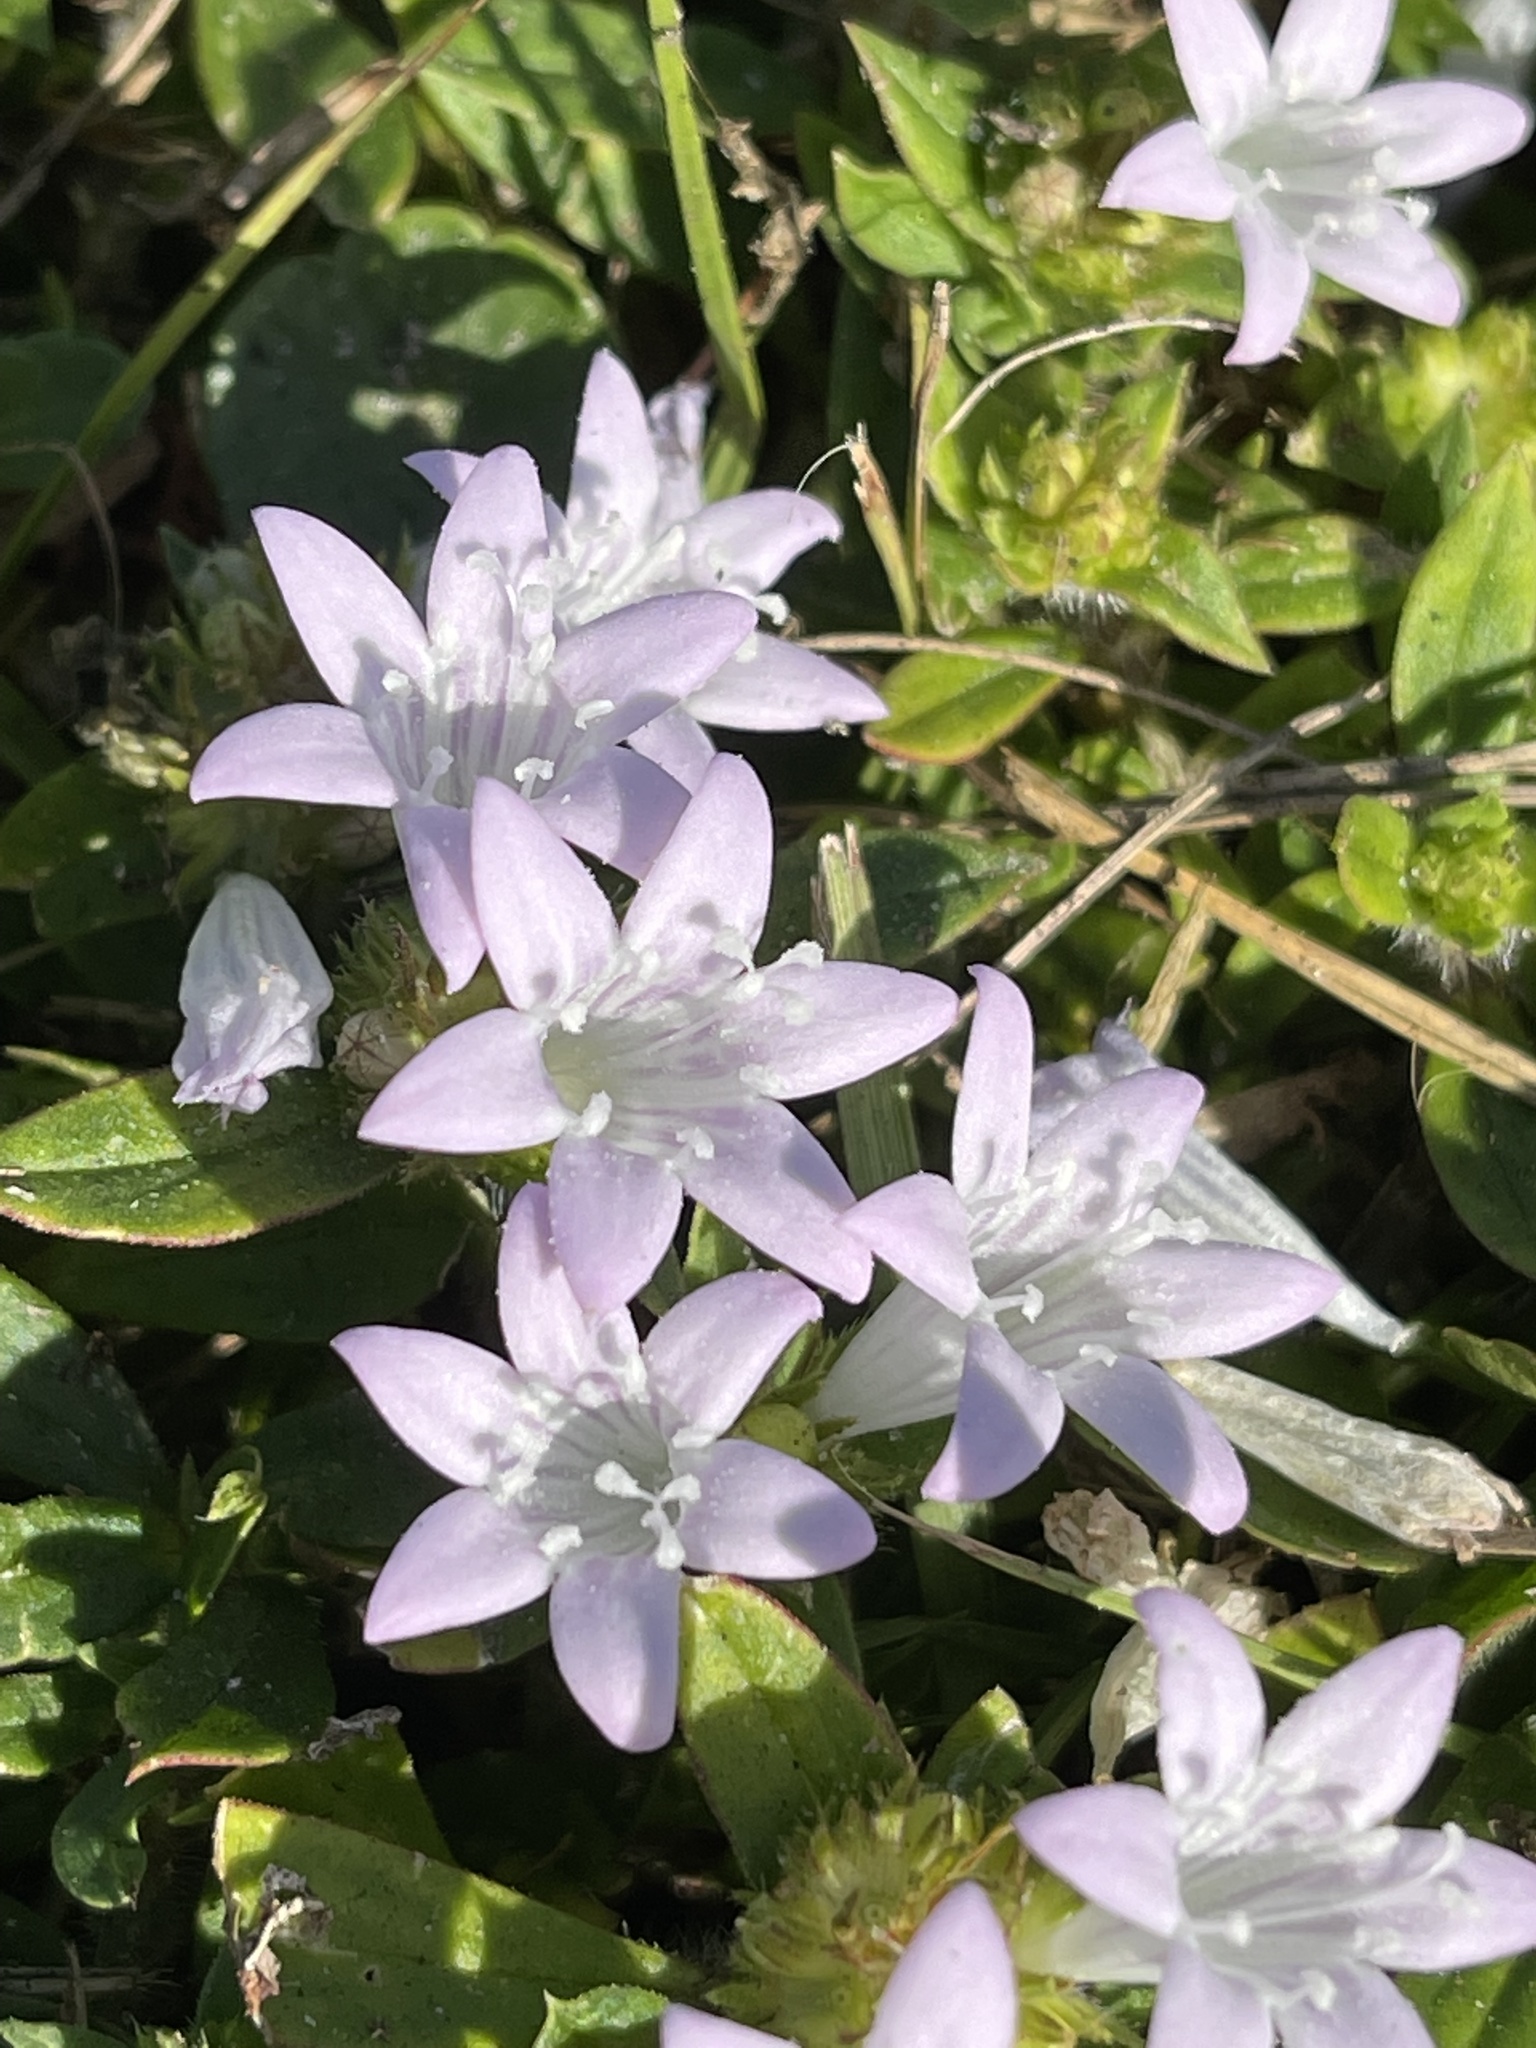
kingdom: Plantae
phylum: Tracheophyta
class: Magnoliopsida
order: Gentianales
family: Rubiaceae
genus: Richardia
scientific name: Richardia grandiflora
